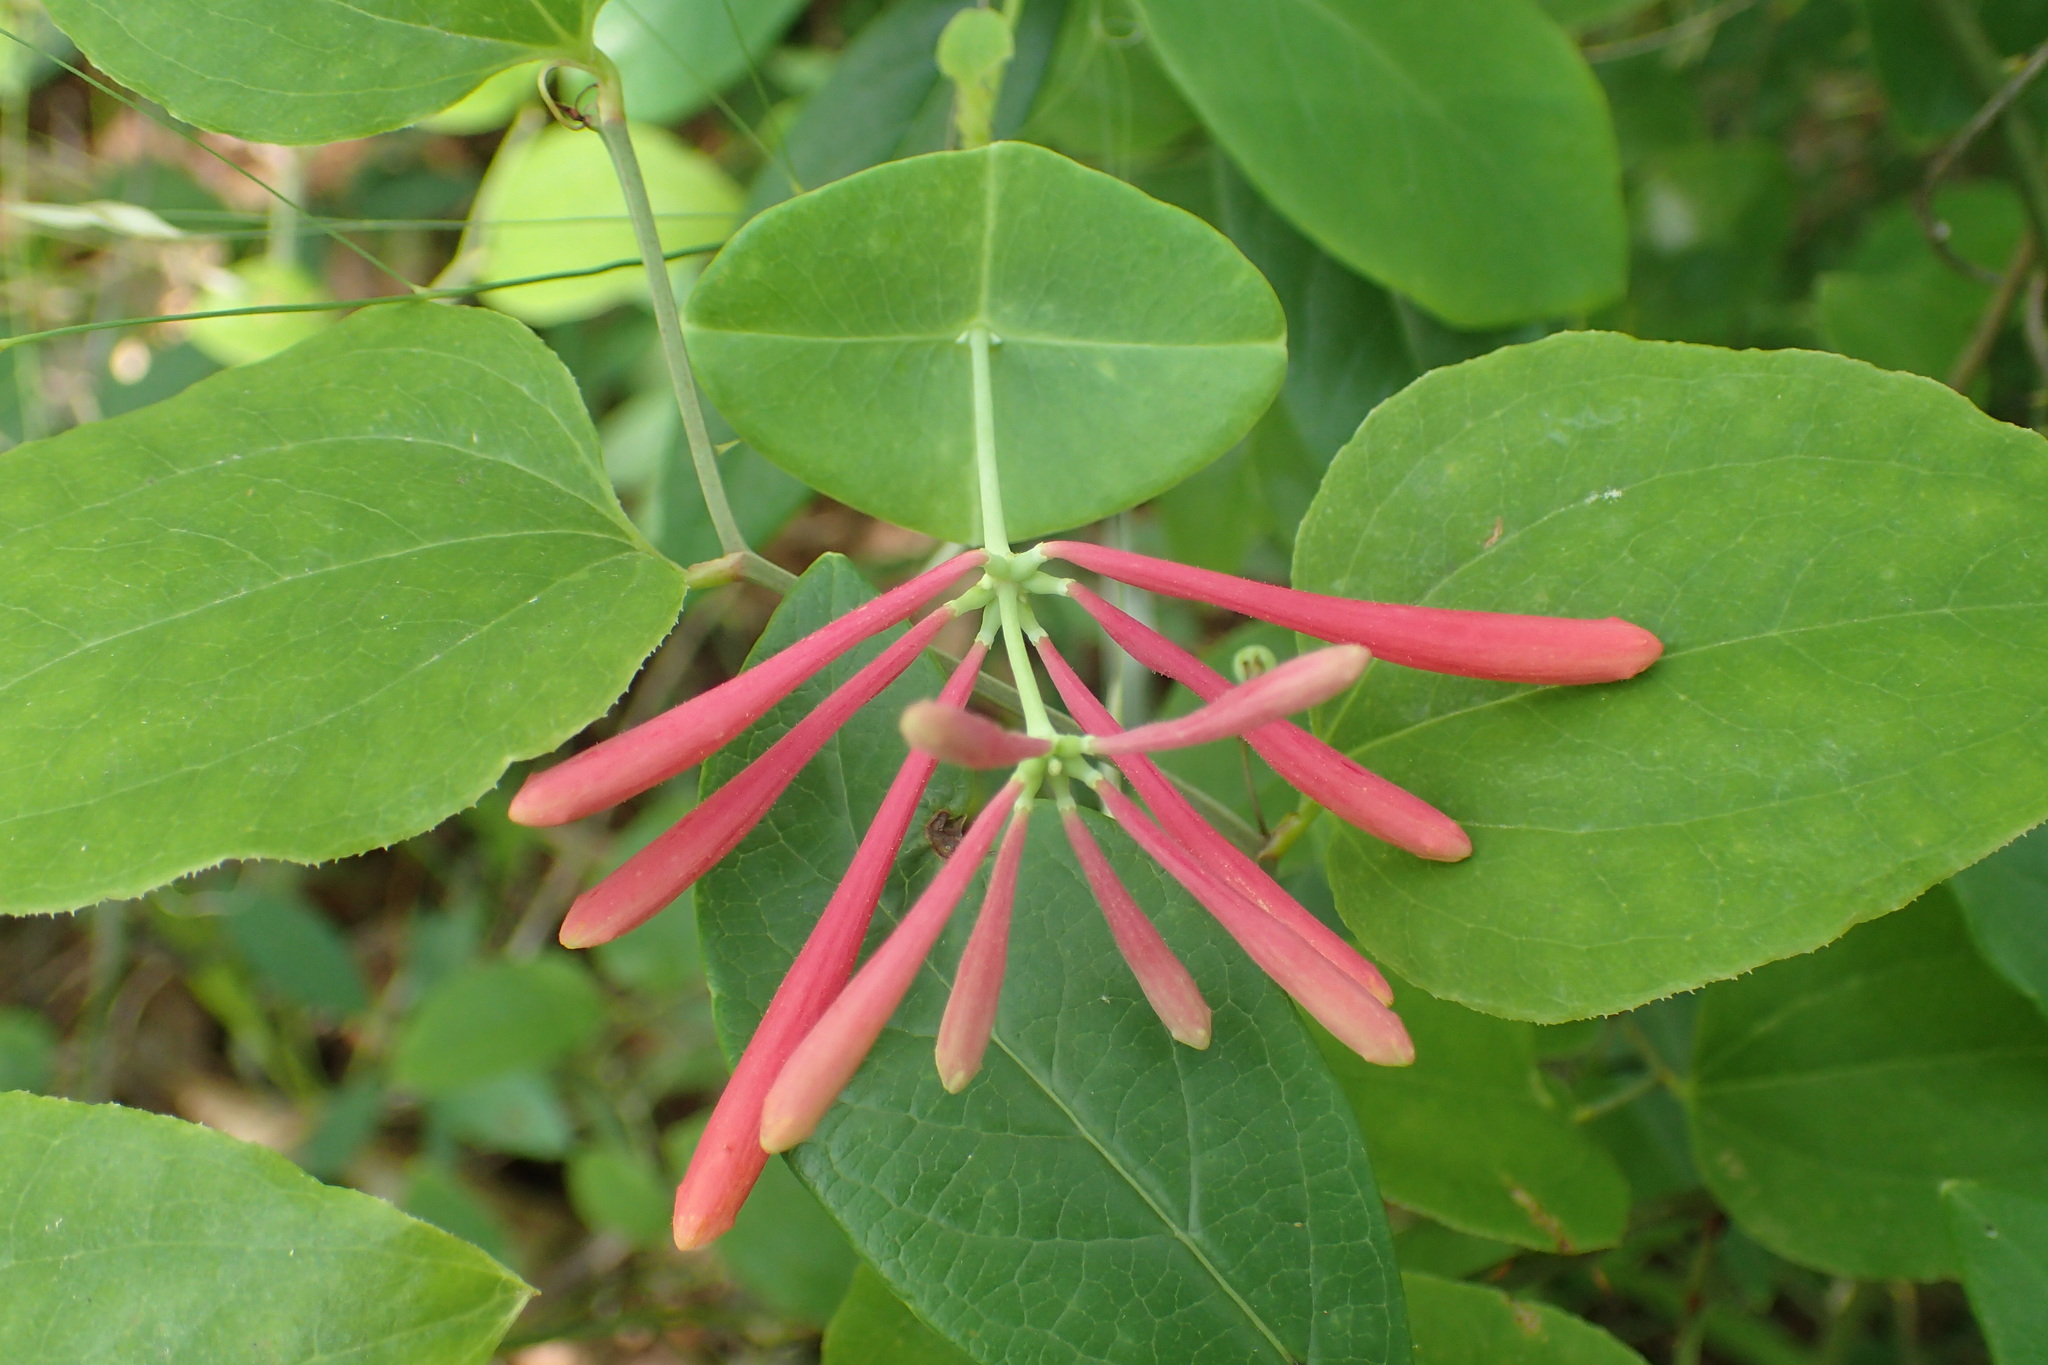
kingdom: Plantae
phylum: Tracheophyta
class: Magnoliopsida
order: Dipsacales
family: Caprifoliaceae
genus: Lonicera
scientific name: Lonicera sempervirens
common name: Coral honeysuckle
